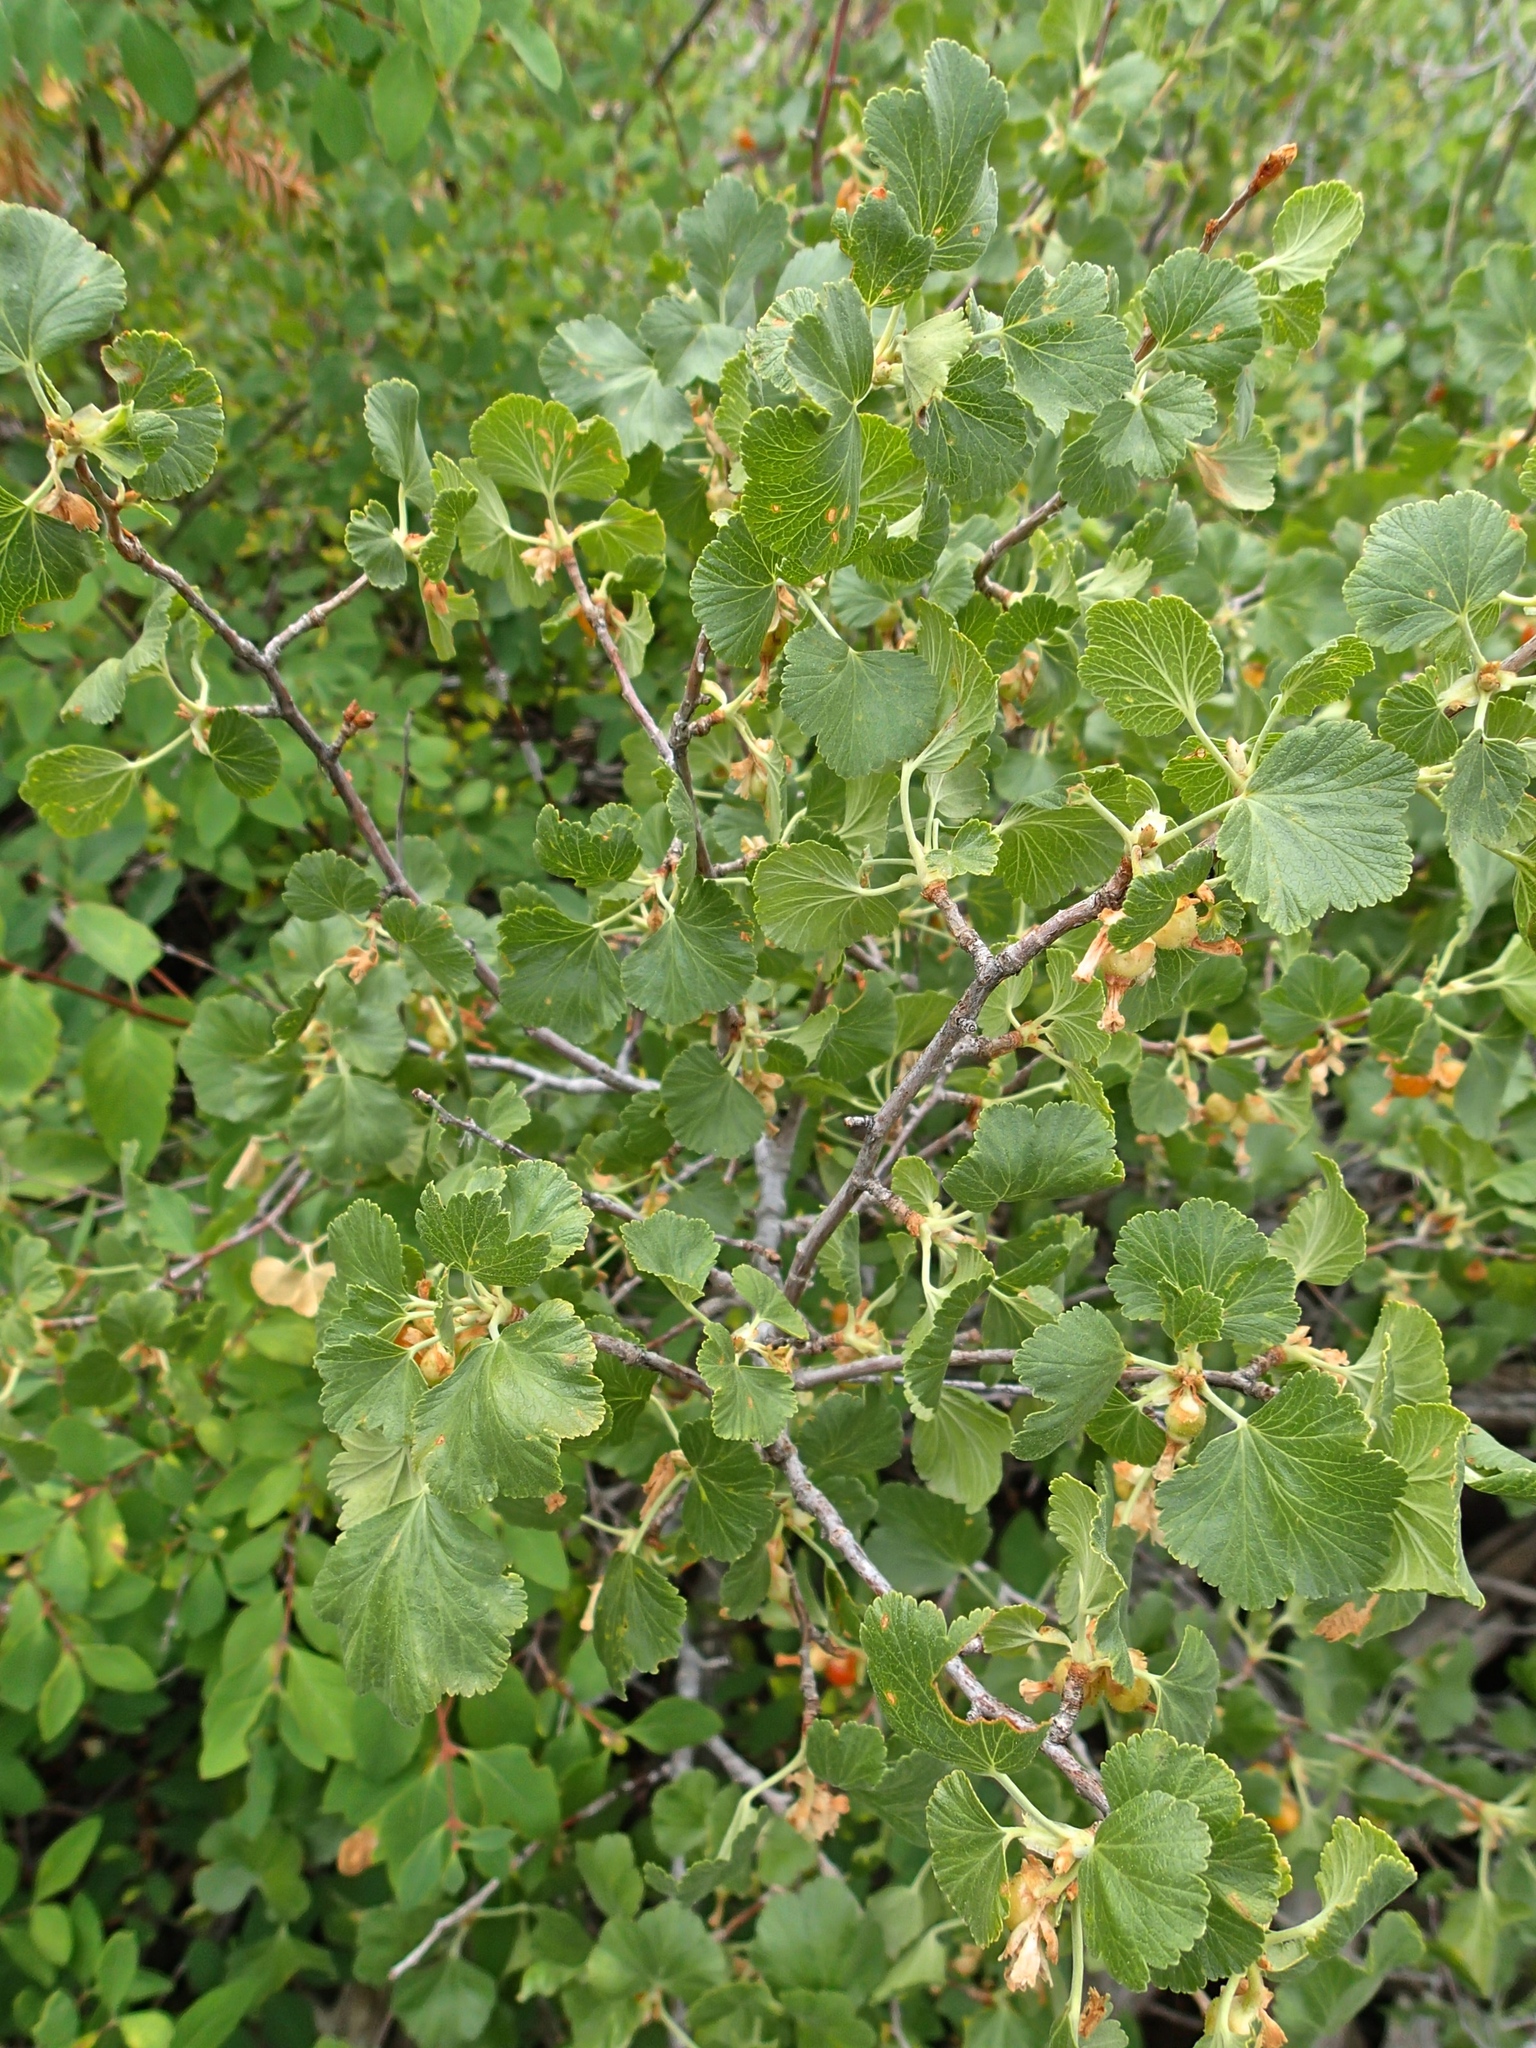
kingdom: Plantae
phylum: Tracheophyta
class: Magnoliopsida
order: Saxifragales
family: Grossulariaceae
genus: Ribes
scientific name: Ribes cereum
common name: Wax currant
